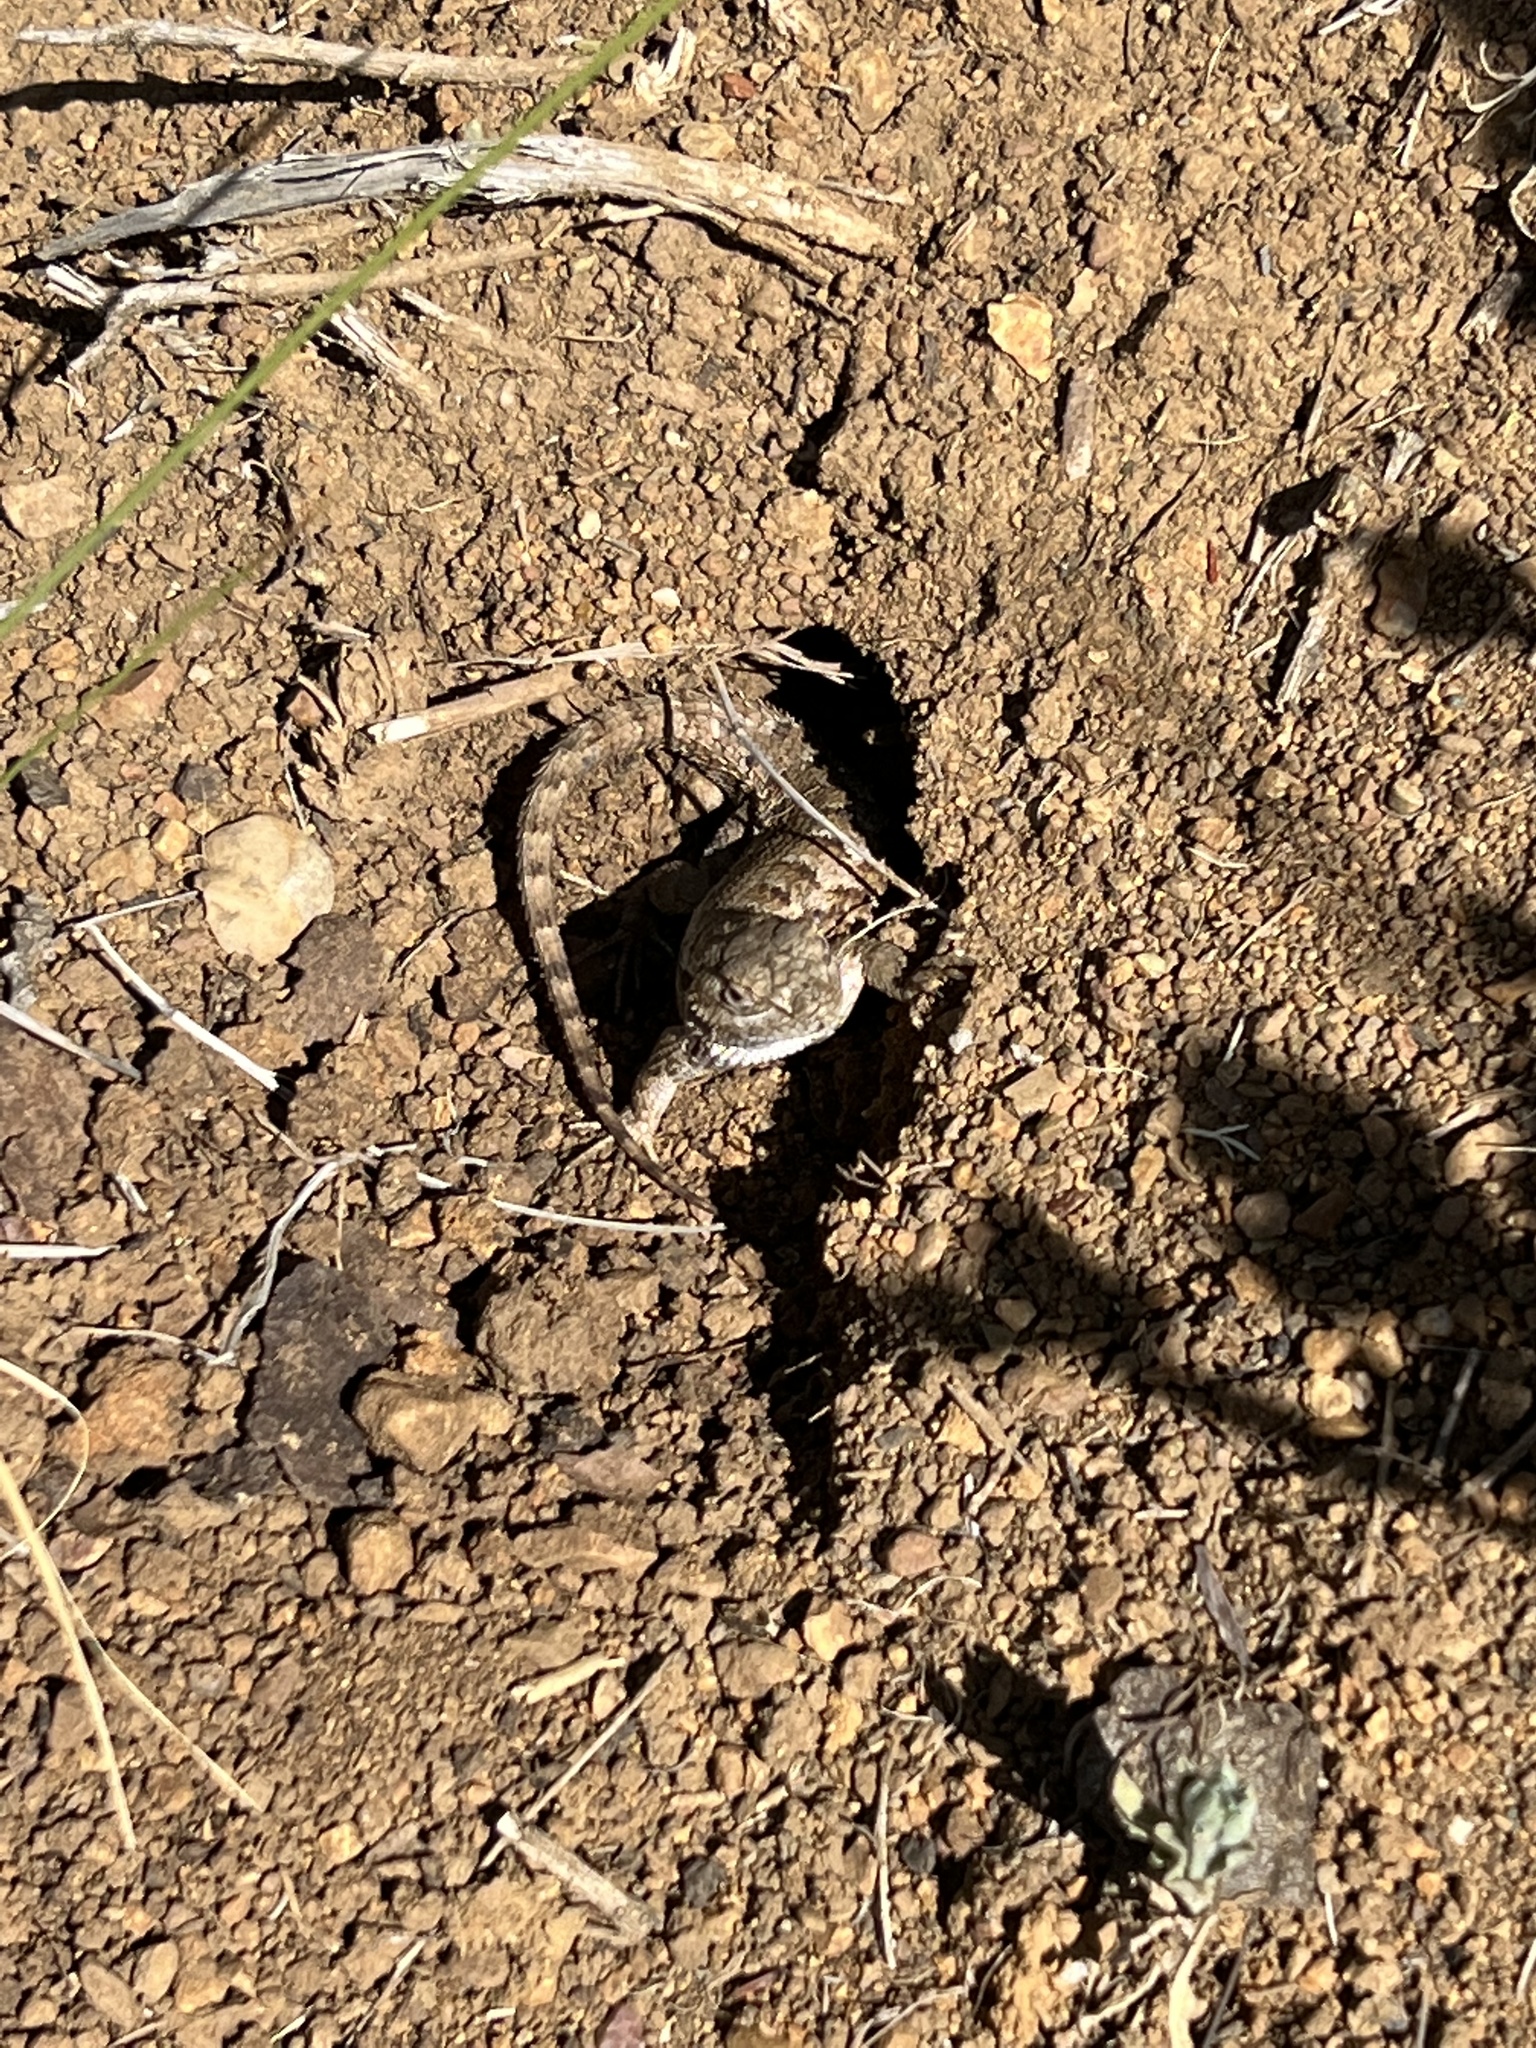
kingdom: Animalia
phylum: Chordata
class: Squamata
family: Phrynosomatidae
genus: Sceloporus
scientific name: Sceloporus occidentalis
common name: Western fence lizard
